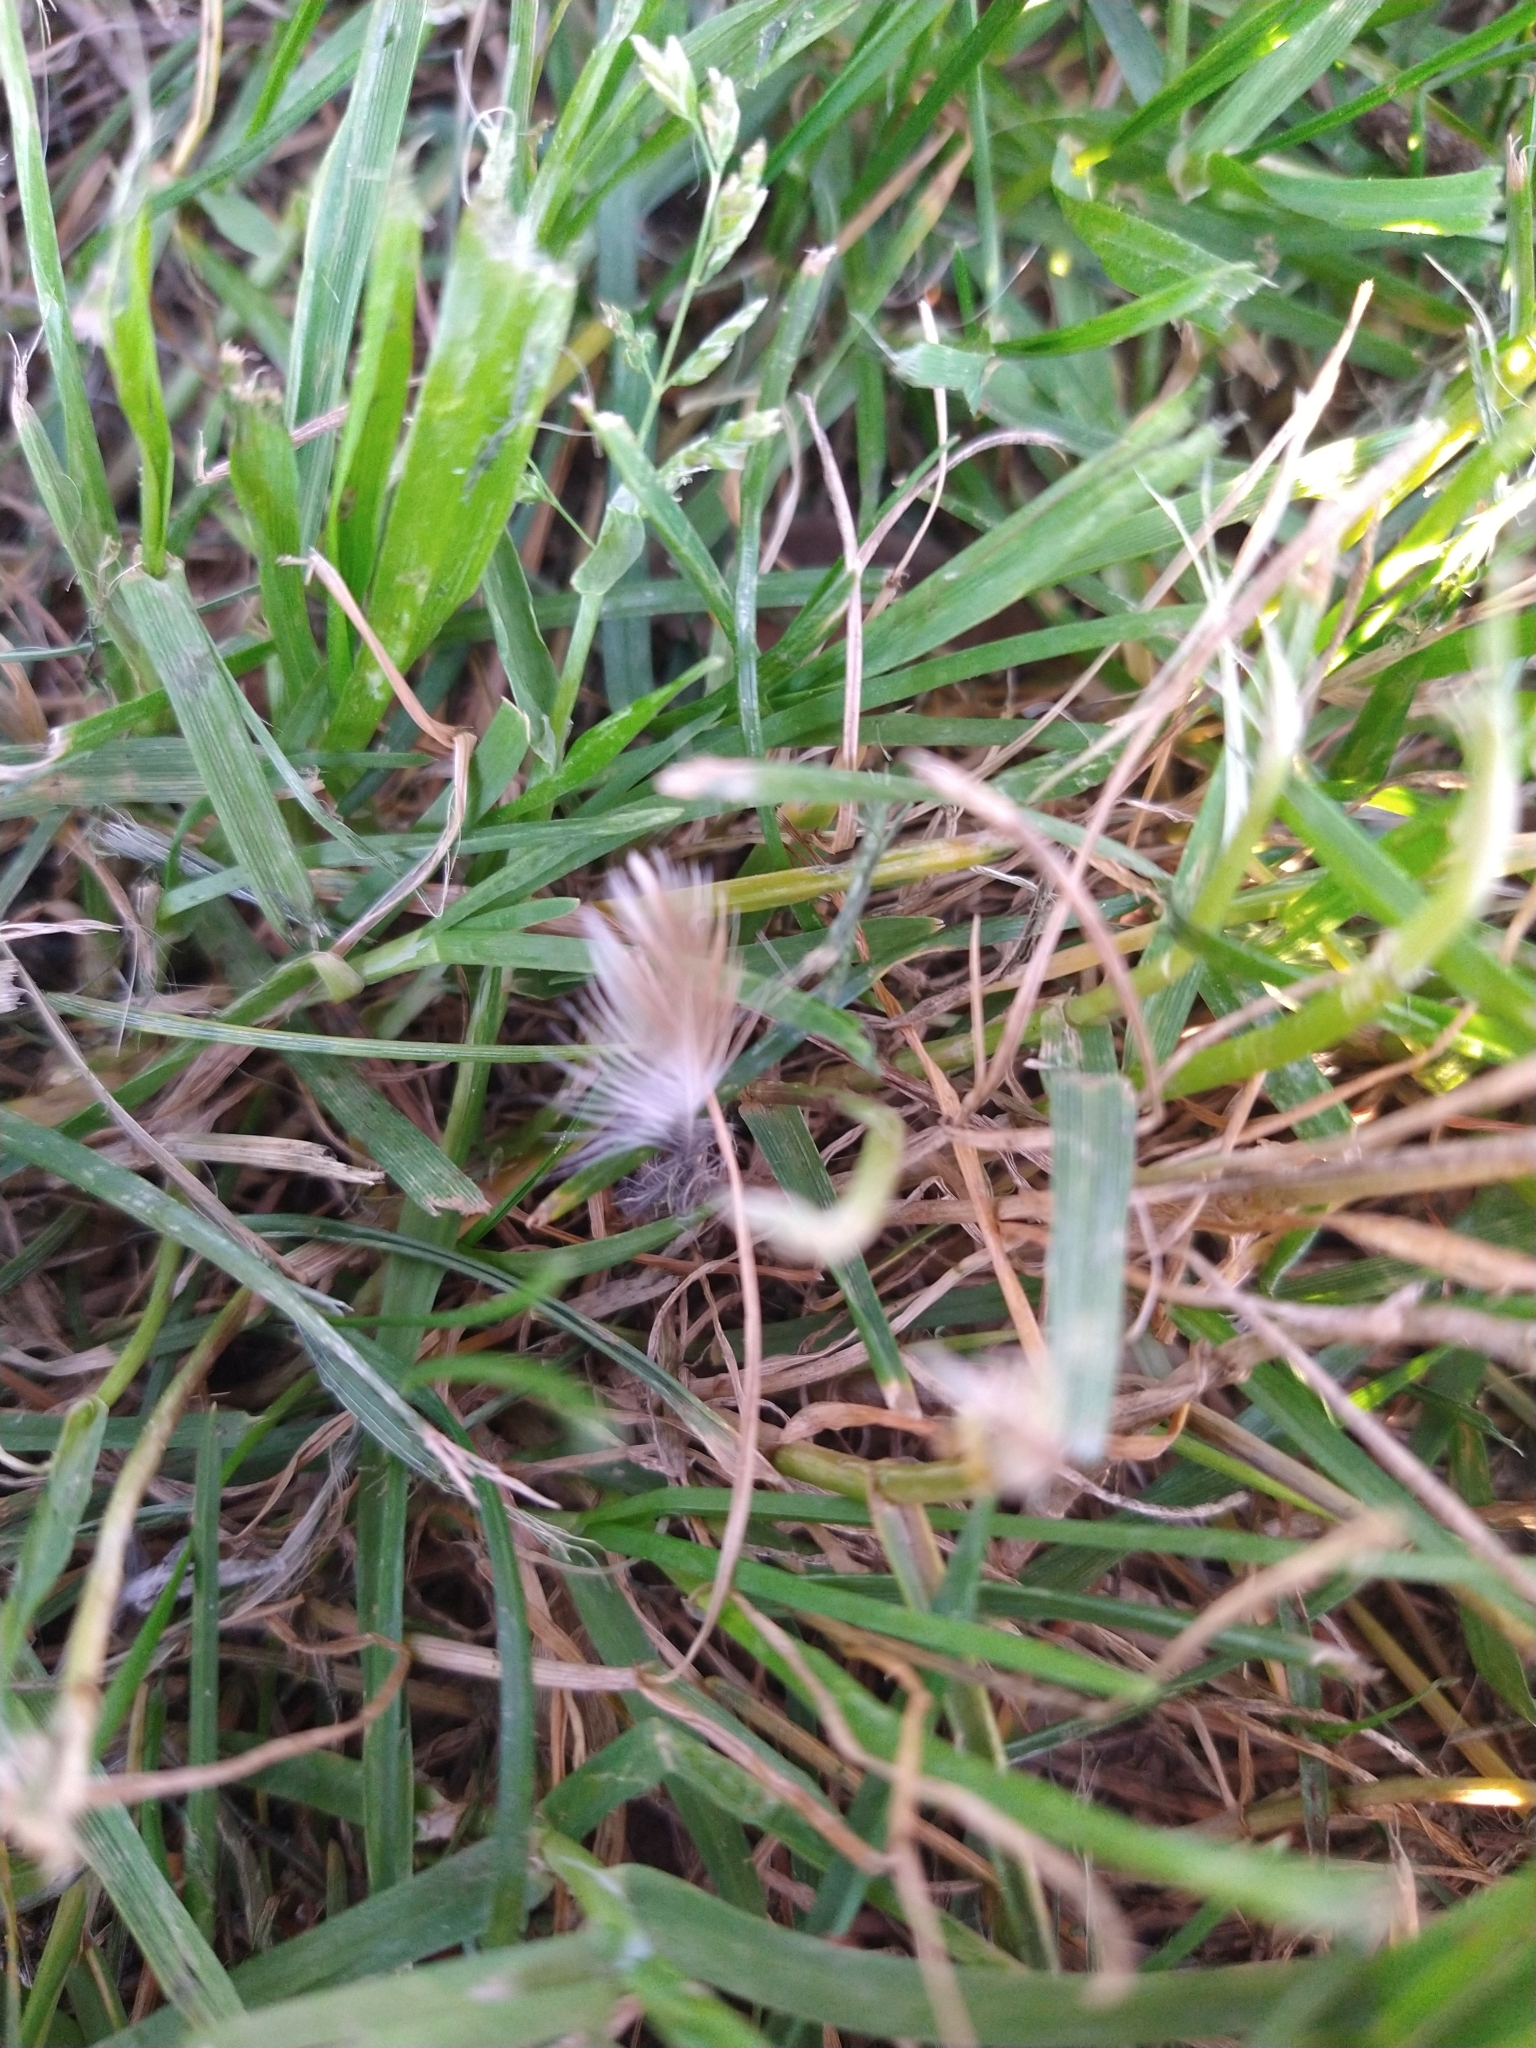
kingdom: Animalia
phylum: Chordata
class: Aves
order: Passeriformes
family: Hirundinidae
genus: Petrochelidon
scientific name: Petrochelidon pyrrhonota
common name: American cliff swallow
